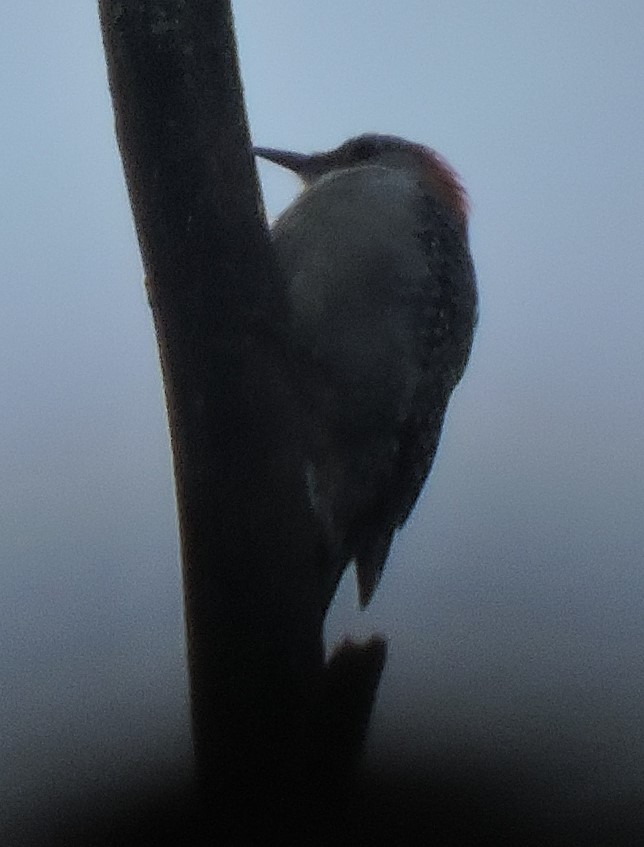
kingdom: Animalia
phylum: Chordata
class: Aves
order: Piciformes
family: Picidae
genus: Melanerpes
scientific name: Melanerpes carolinus
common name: Red-bellied woodpecker
